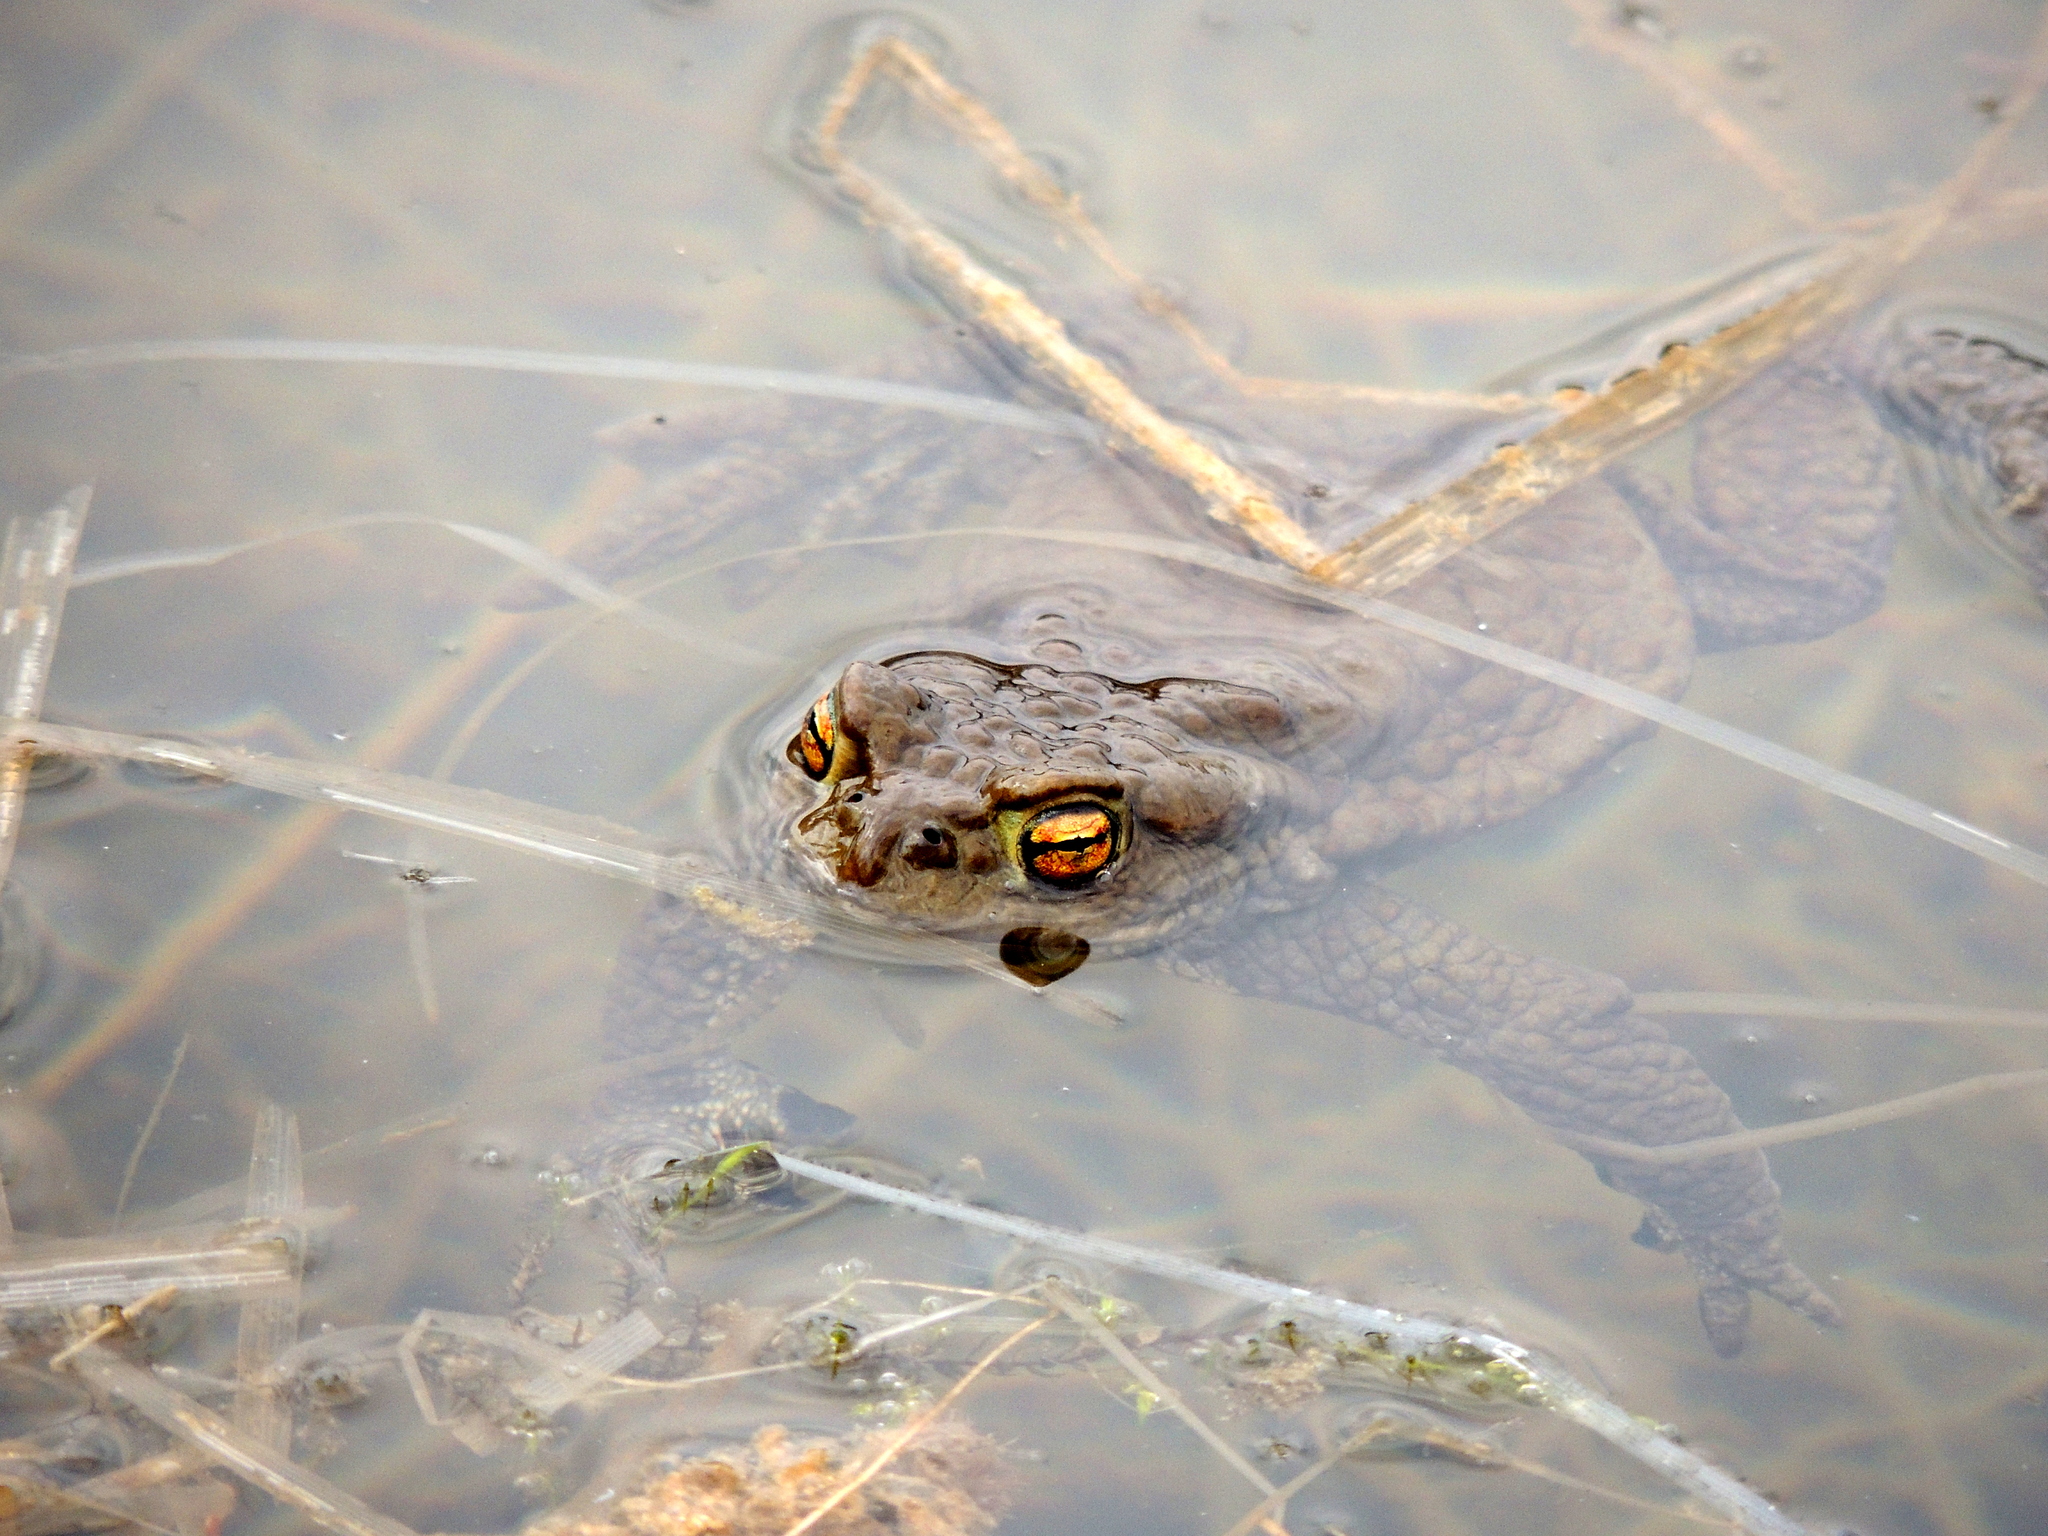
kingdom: Animalia
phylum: Chordata
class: Amphibia
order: Anura
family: Bufonidae
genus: Bufo
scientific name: Bufo bufo
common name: Common toad
